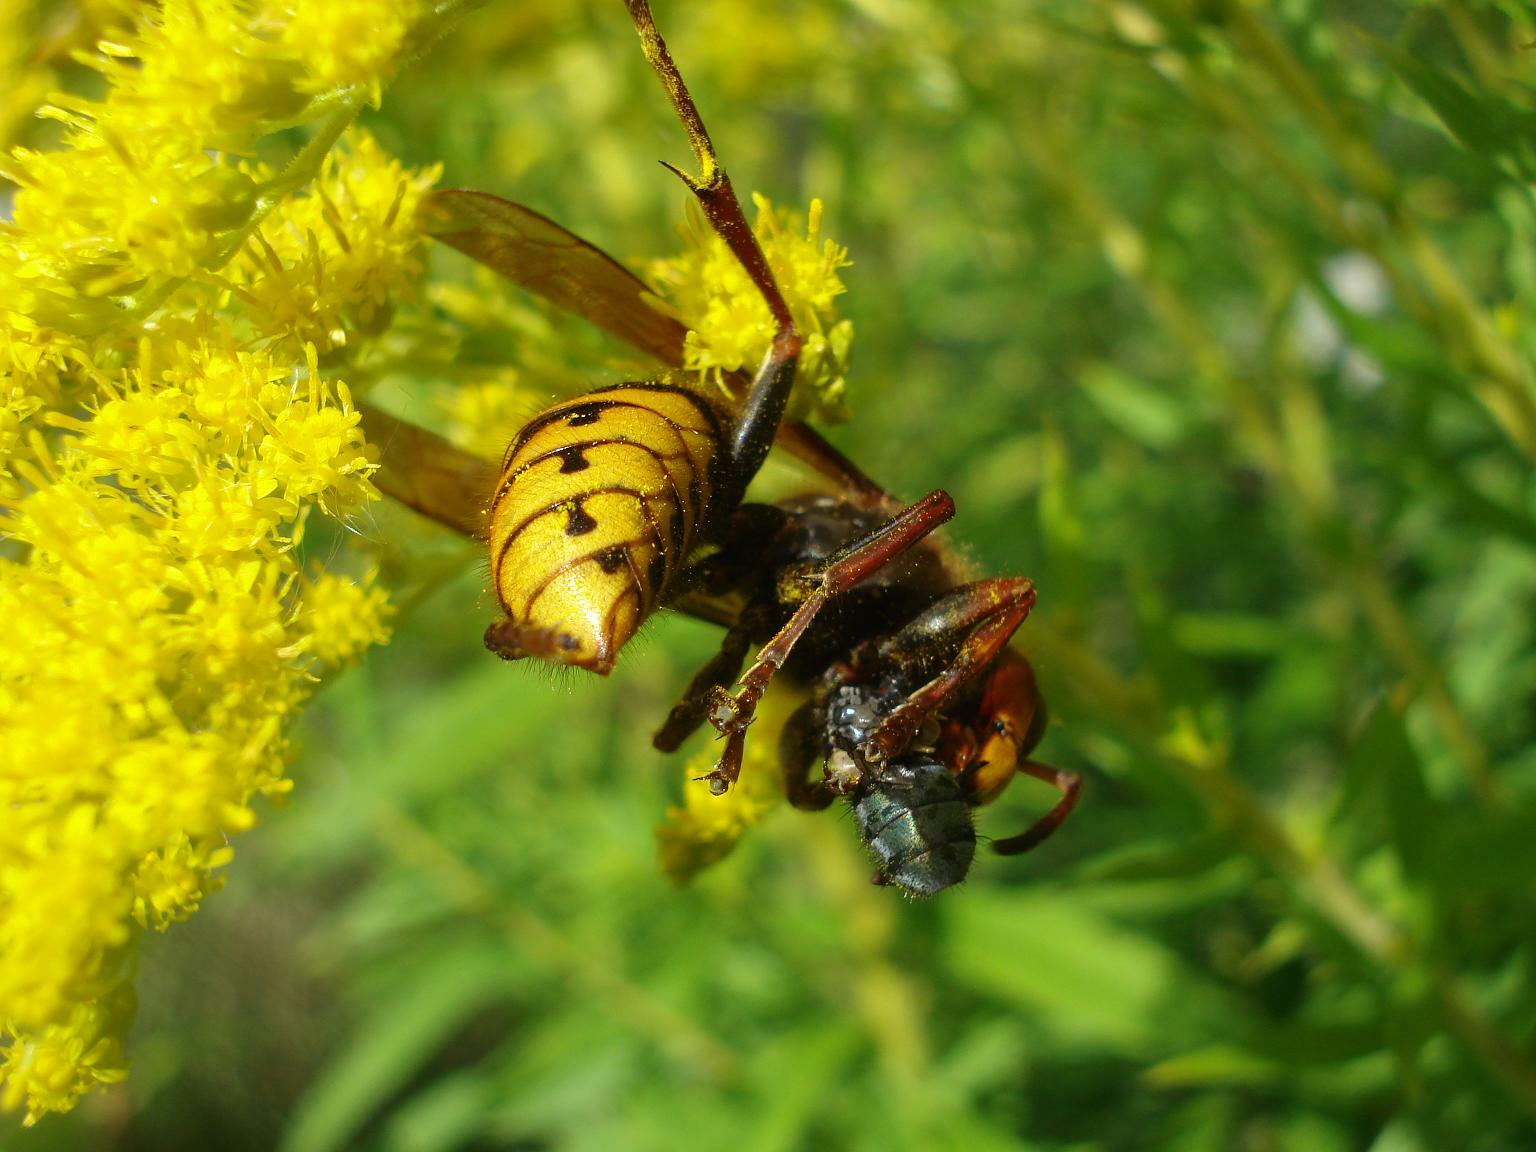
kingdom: Animalia
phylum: Arthropoda
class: Insecta
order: Hymenoptera
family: Vespidae
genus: Vespa
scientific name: Vespa crabro
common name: Hornet
